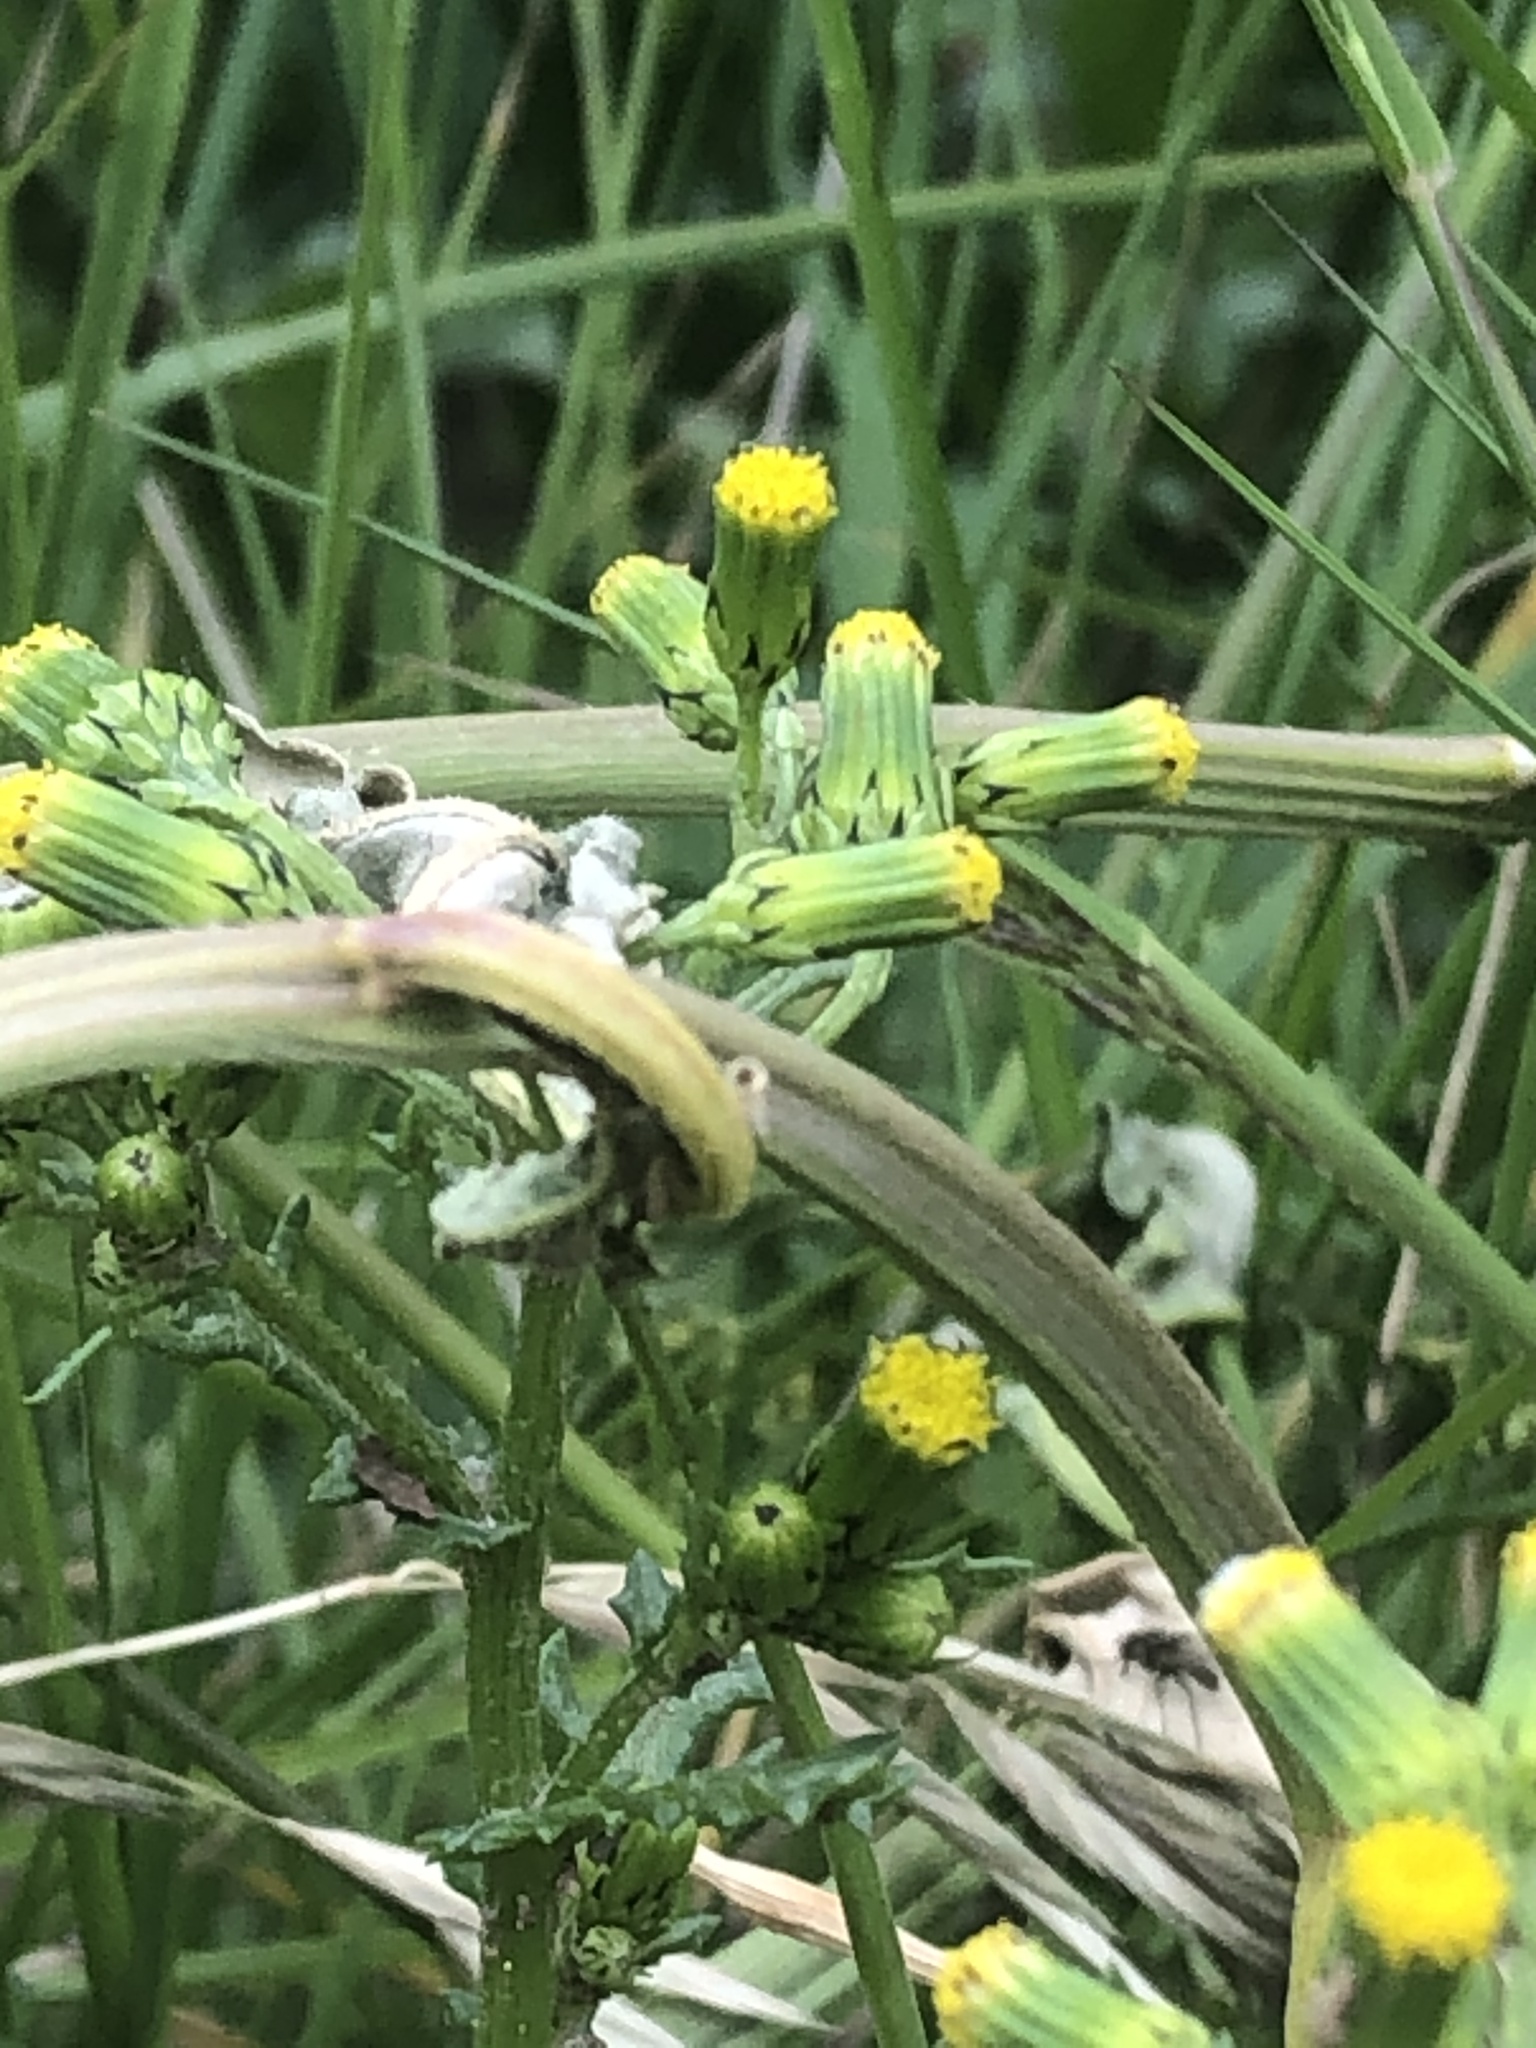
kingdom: Plantae
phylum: Tracheophyta
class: Magnoliopsida
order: Asterales
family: Asteraceae
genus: Senecio
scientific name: Senecio vulgaris
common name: Old-man-in-the-spring
